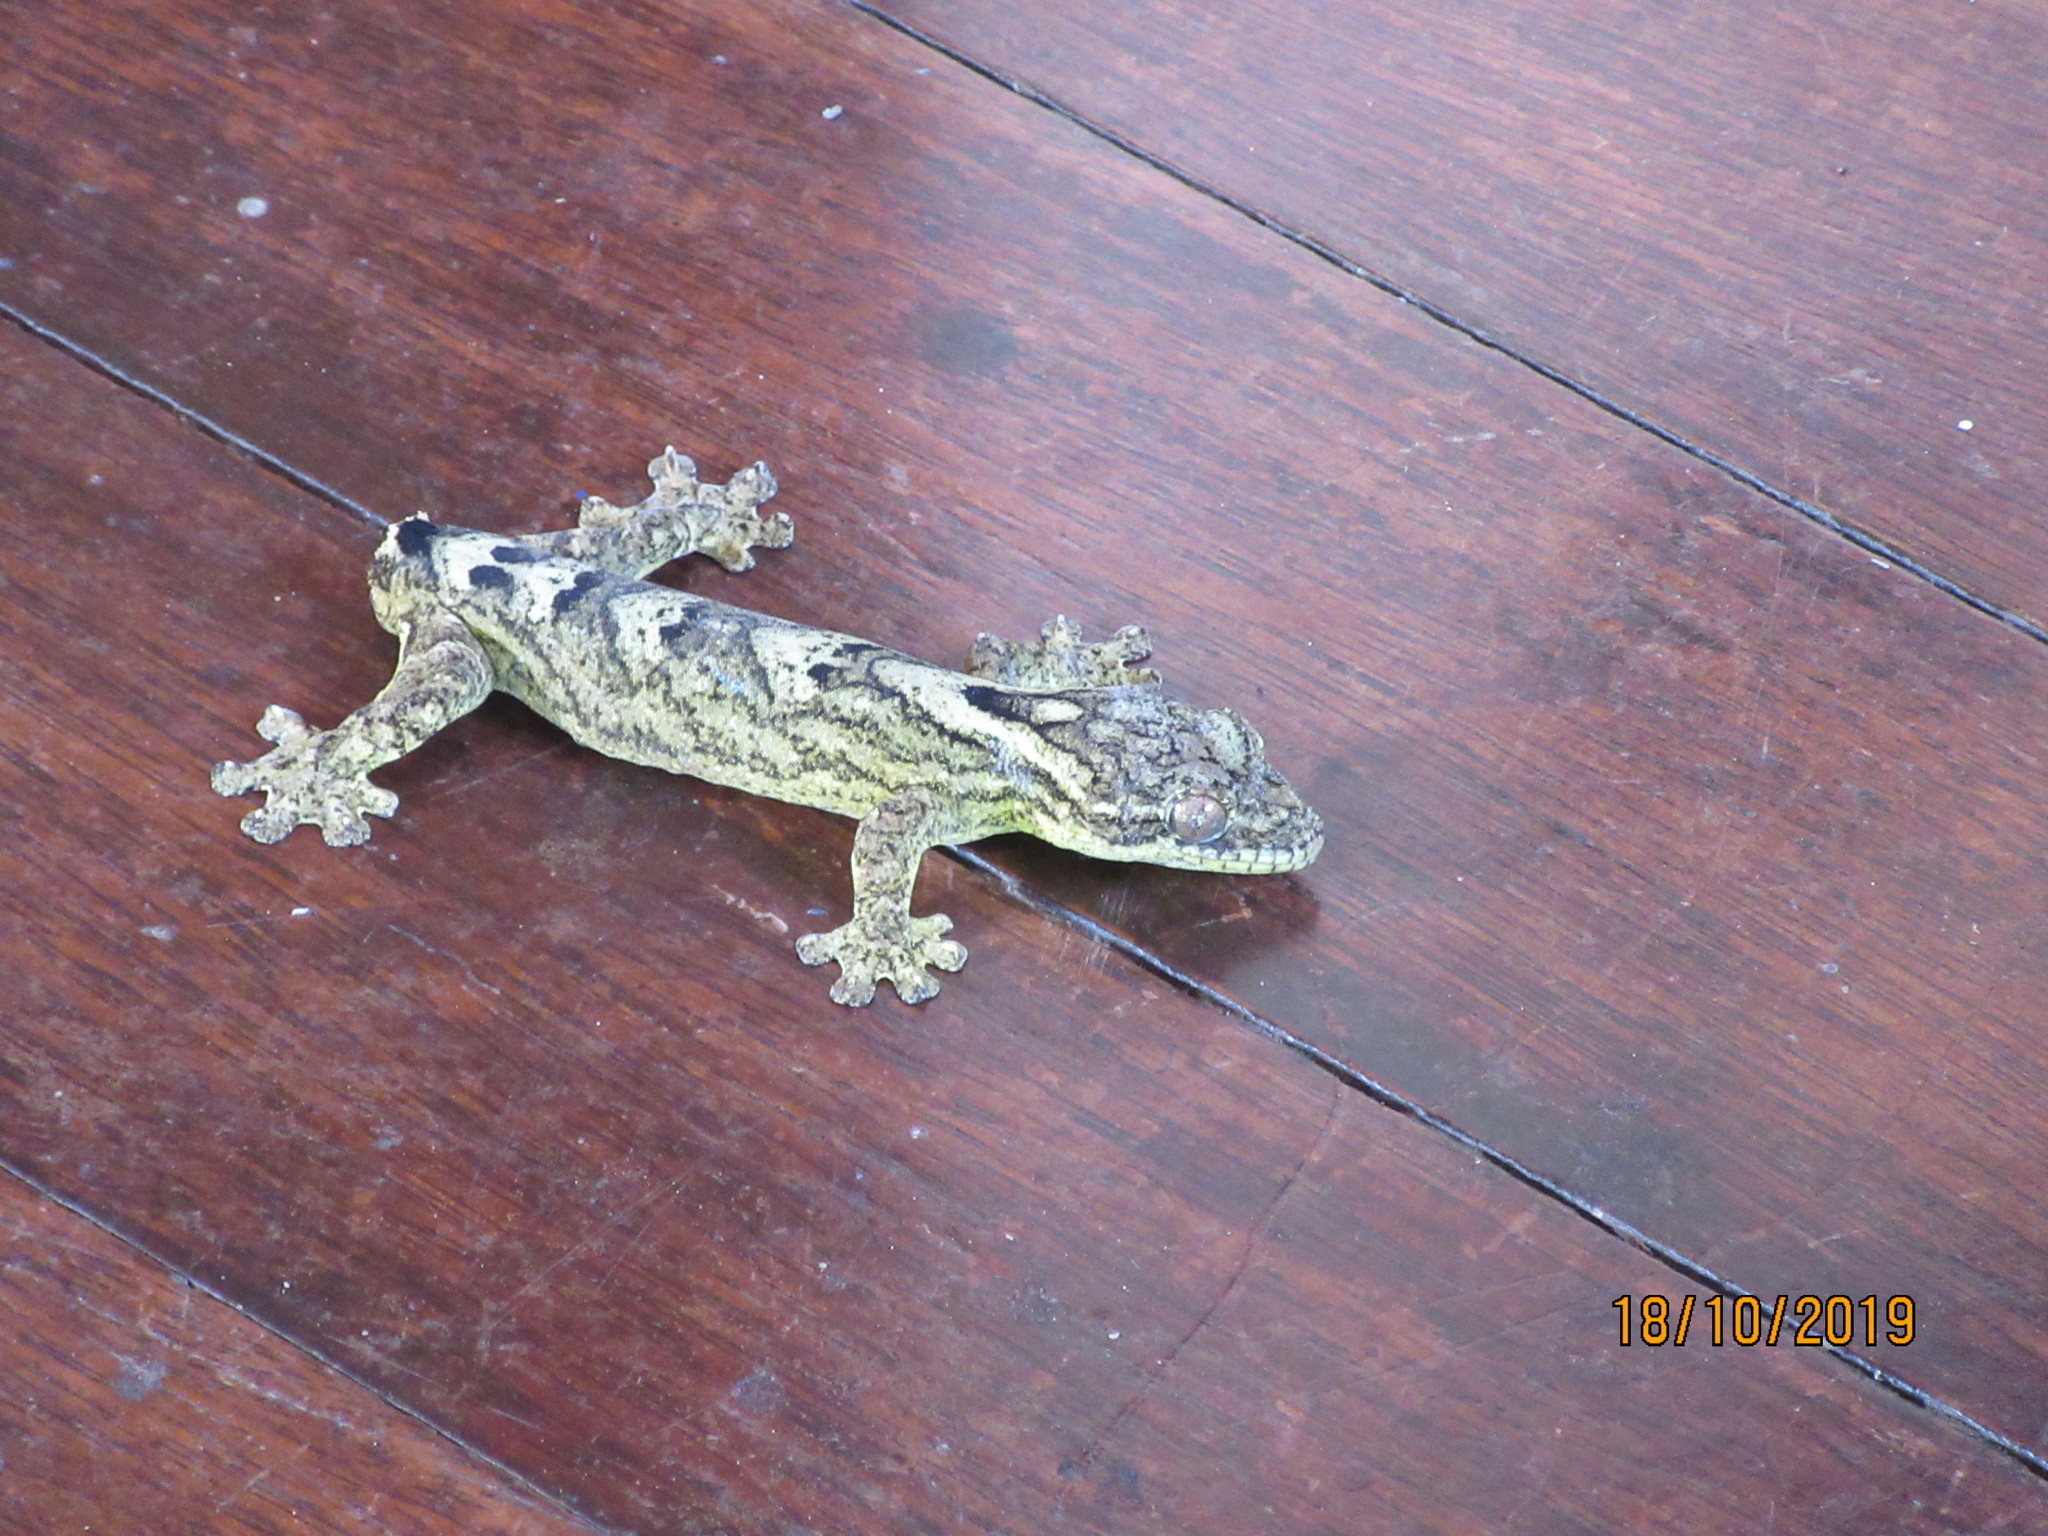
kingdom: Animalia
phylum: Chordata
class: Squamata
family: Phyllodactylidae
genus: Thecadactylus
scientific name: Thecadactylus solimoensis
